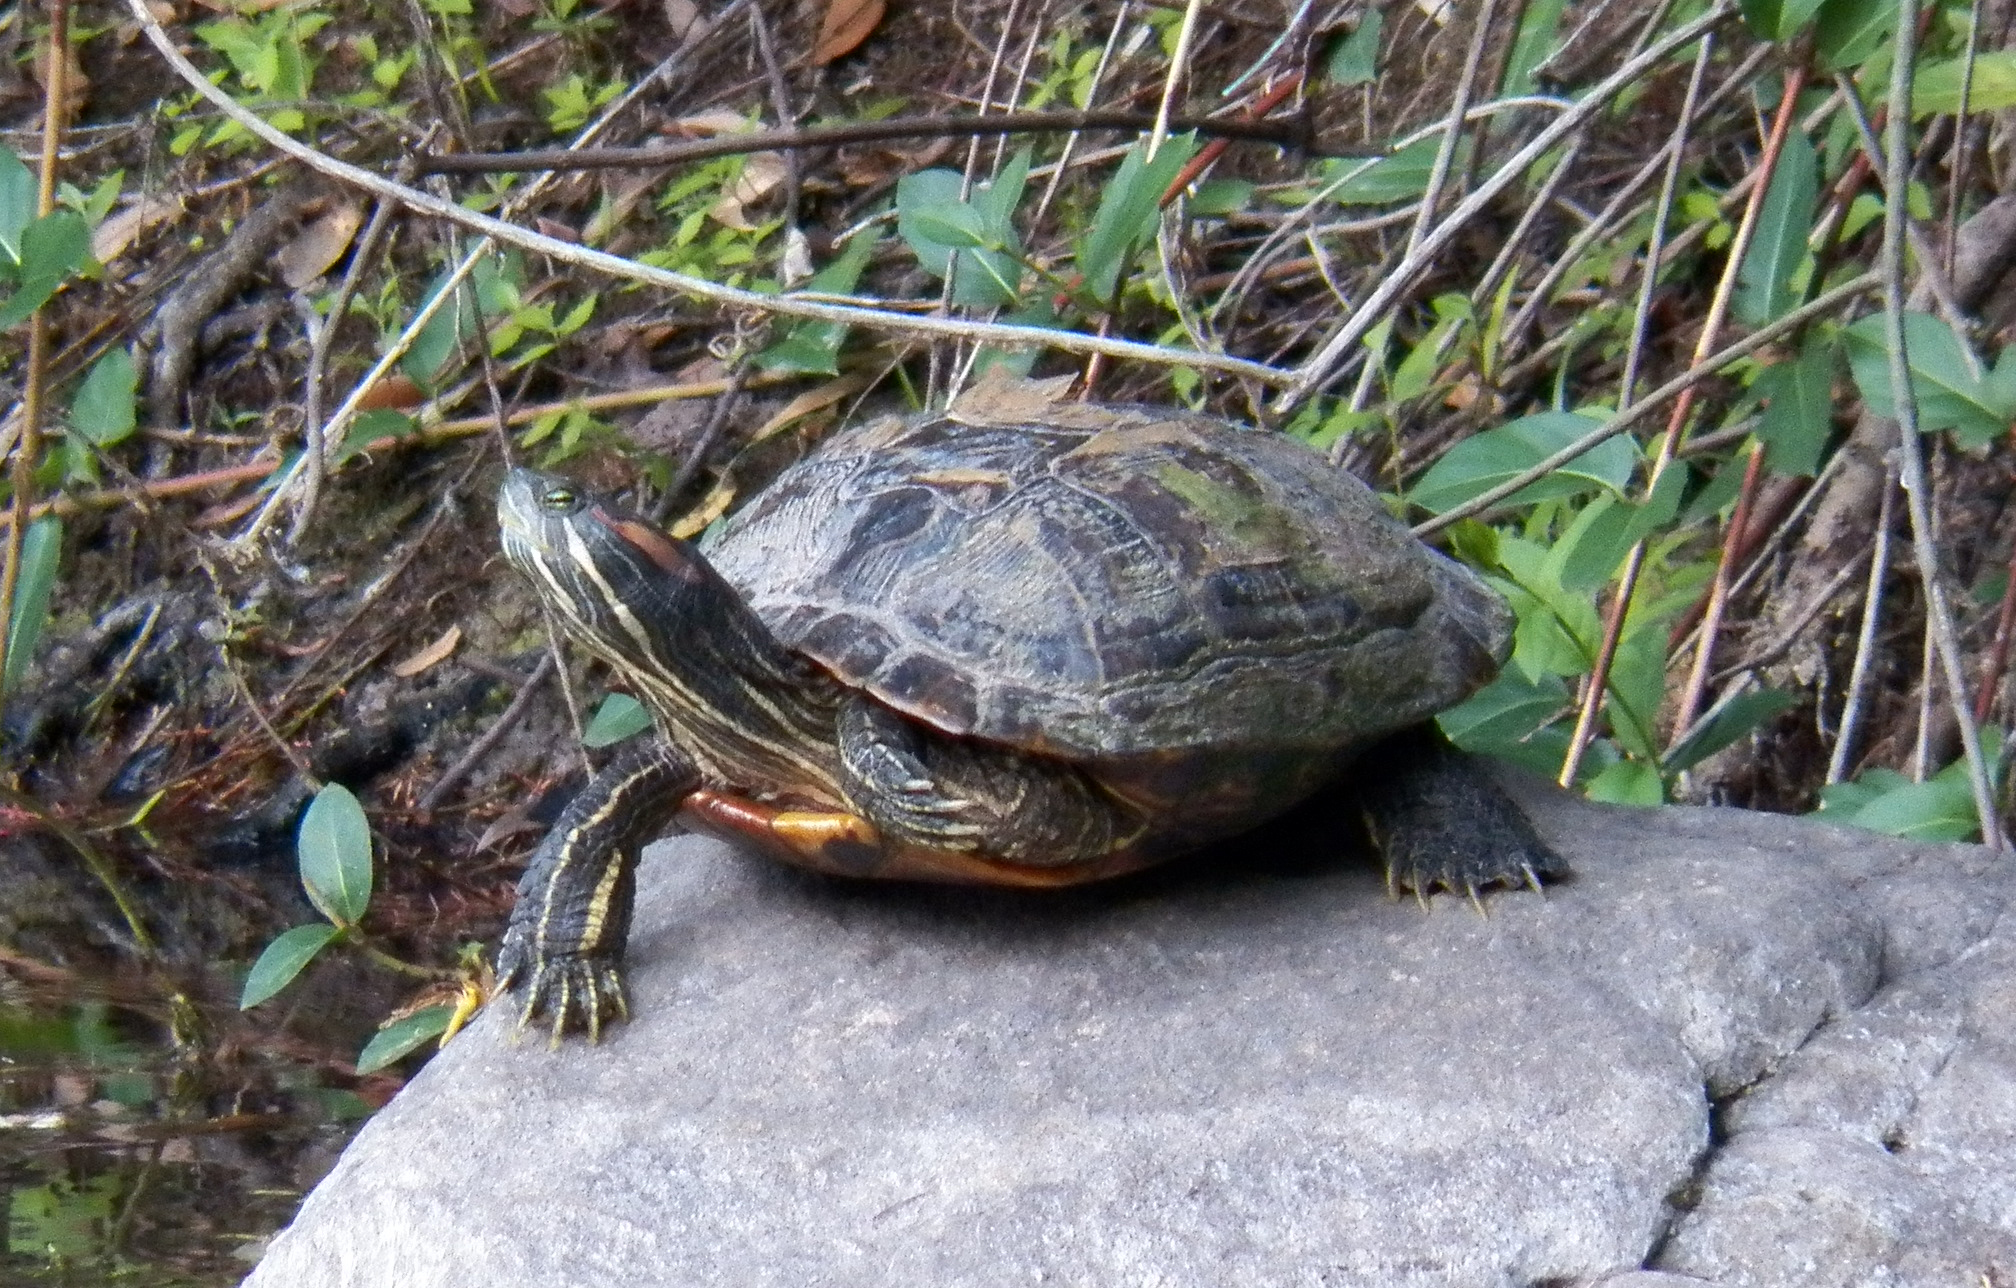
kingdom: Animalia
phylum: Chordata
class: Testudines
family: Emydidae
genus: Trachemys
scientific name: Trachemys scripta
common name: Slider
